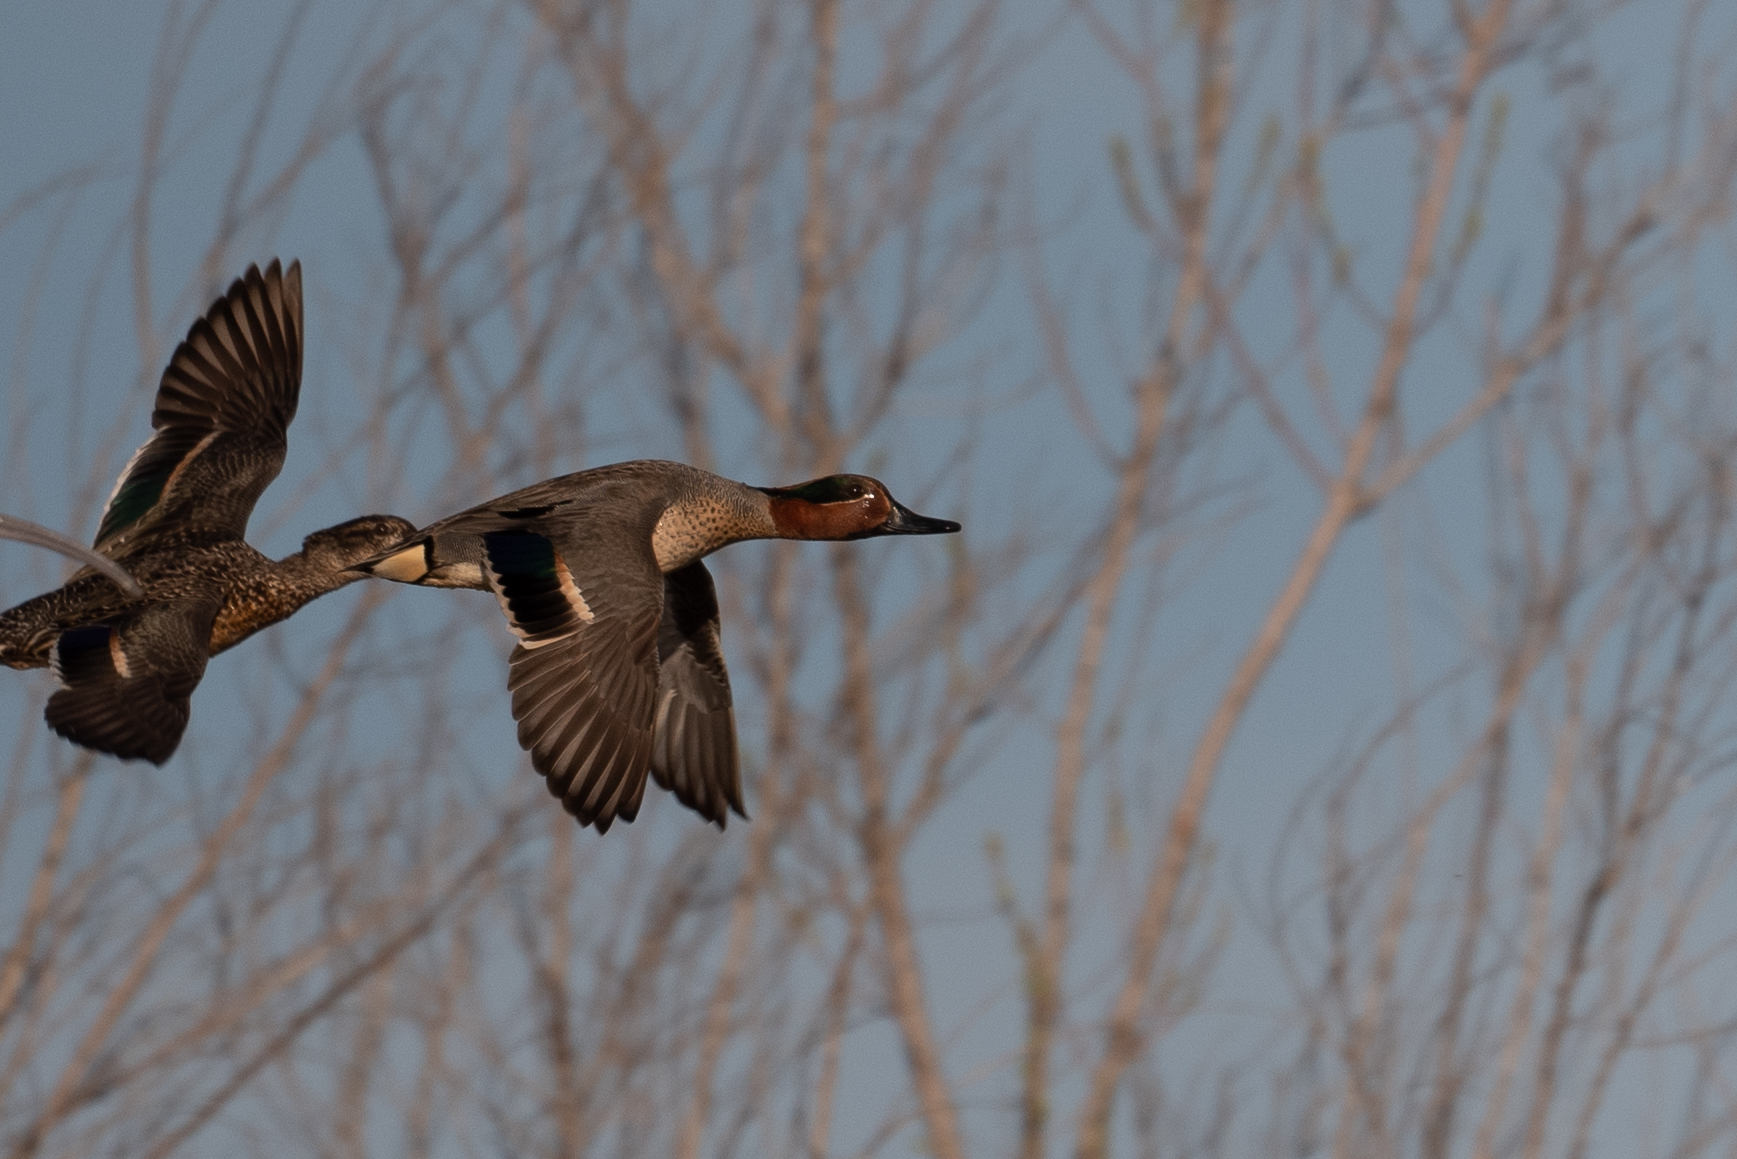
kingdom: Animalia
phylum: Chordata
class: Aves
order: Anseriformes
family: Anatidae
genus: Anas
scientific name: Anas crecca
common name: Eurasian teal
